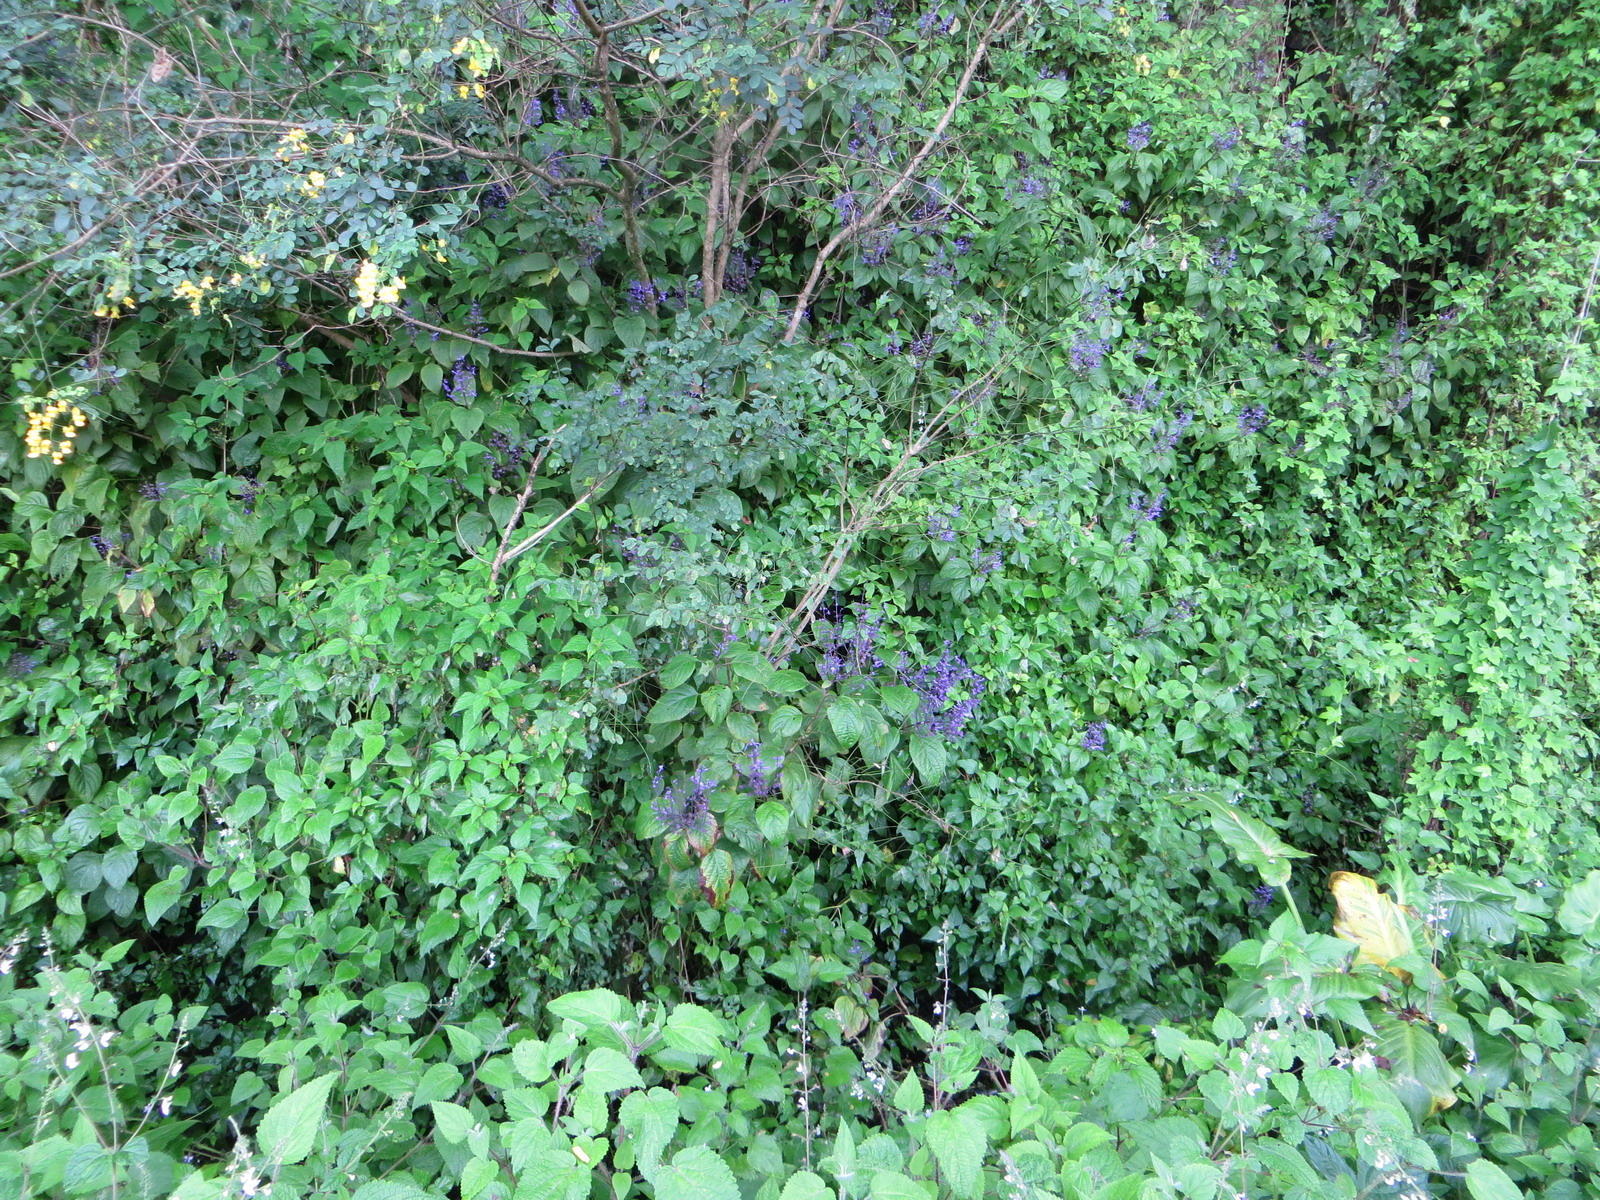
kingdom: Plantae
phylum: Tracheophyta
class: Magnoliopsida
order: Lamiales
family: Lamiaceae
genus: Plectranthus
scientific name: Plectranthus ecklonii
